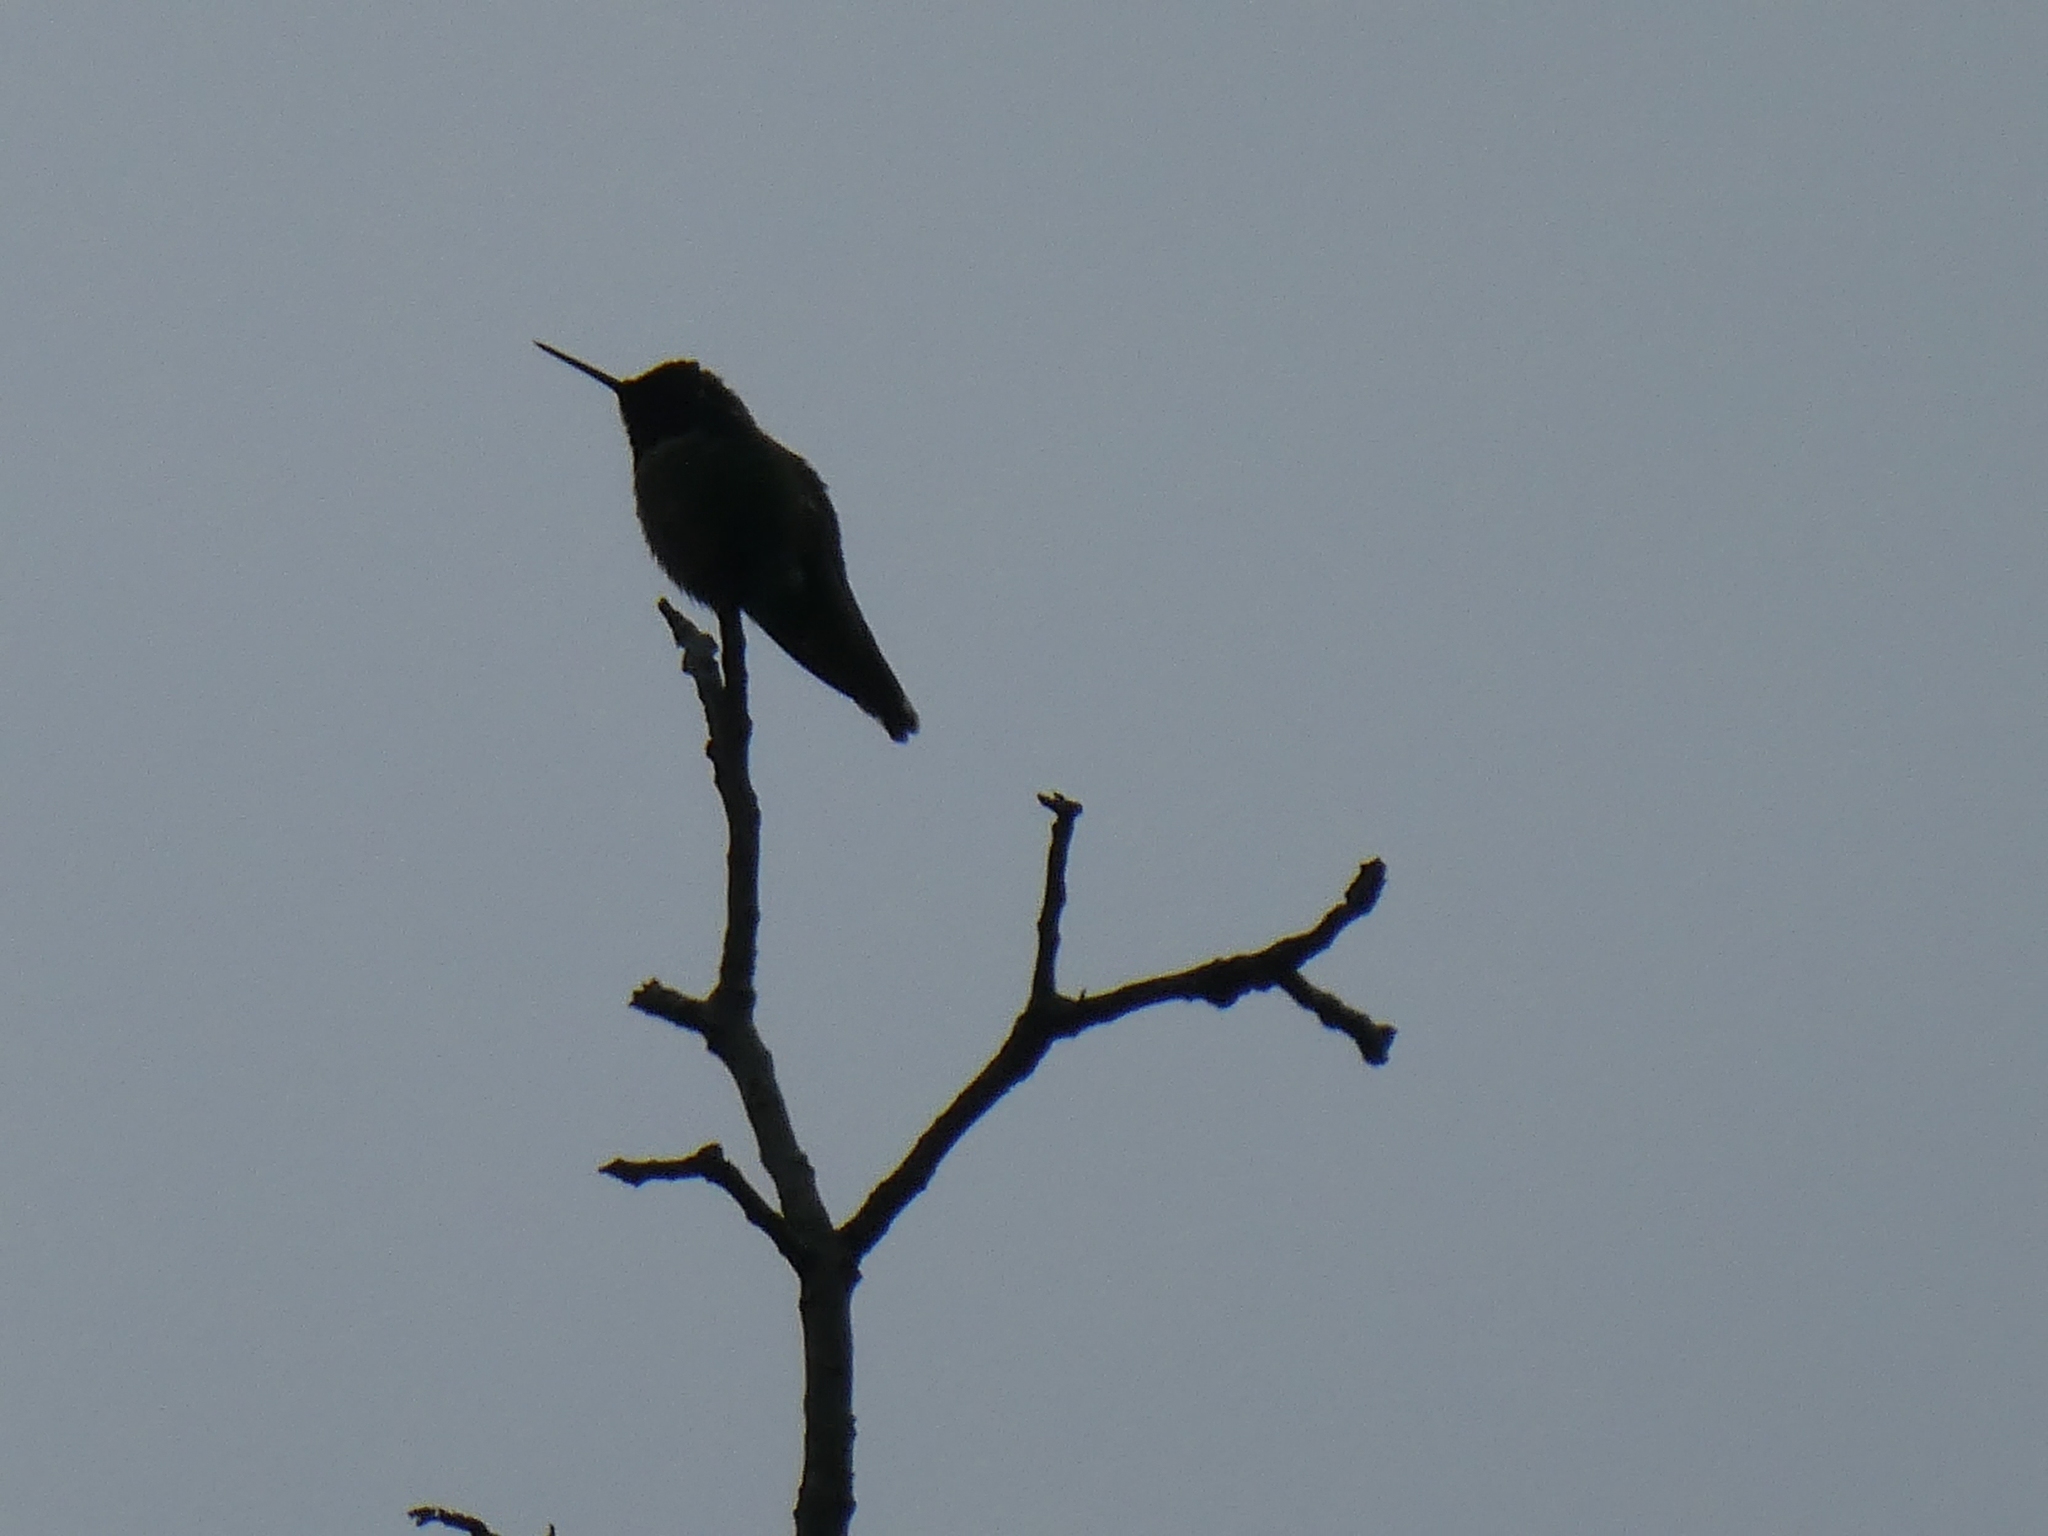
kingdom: Animalia
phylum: Chordata
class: Aves
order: Apodiformes
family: Trochilidae
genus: Calypte
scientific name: Calypte anna
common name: Anna's hummingbird
